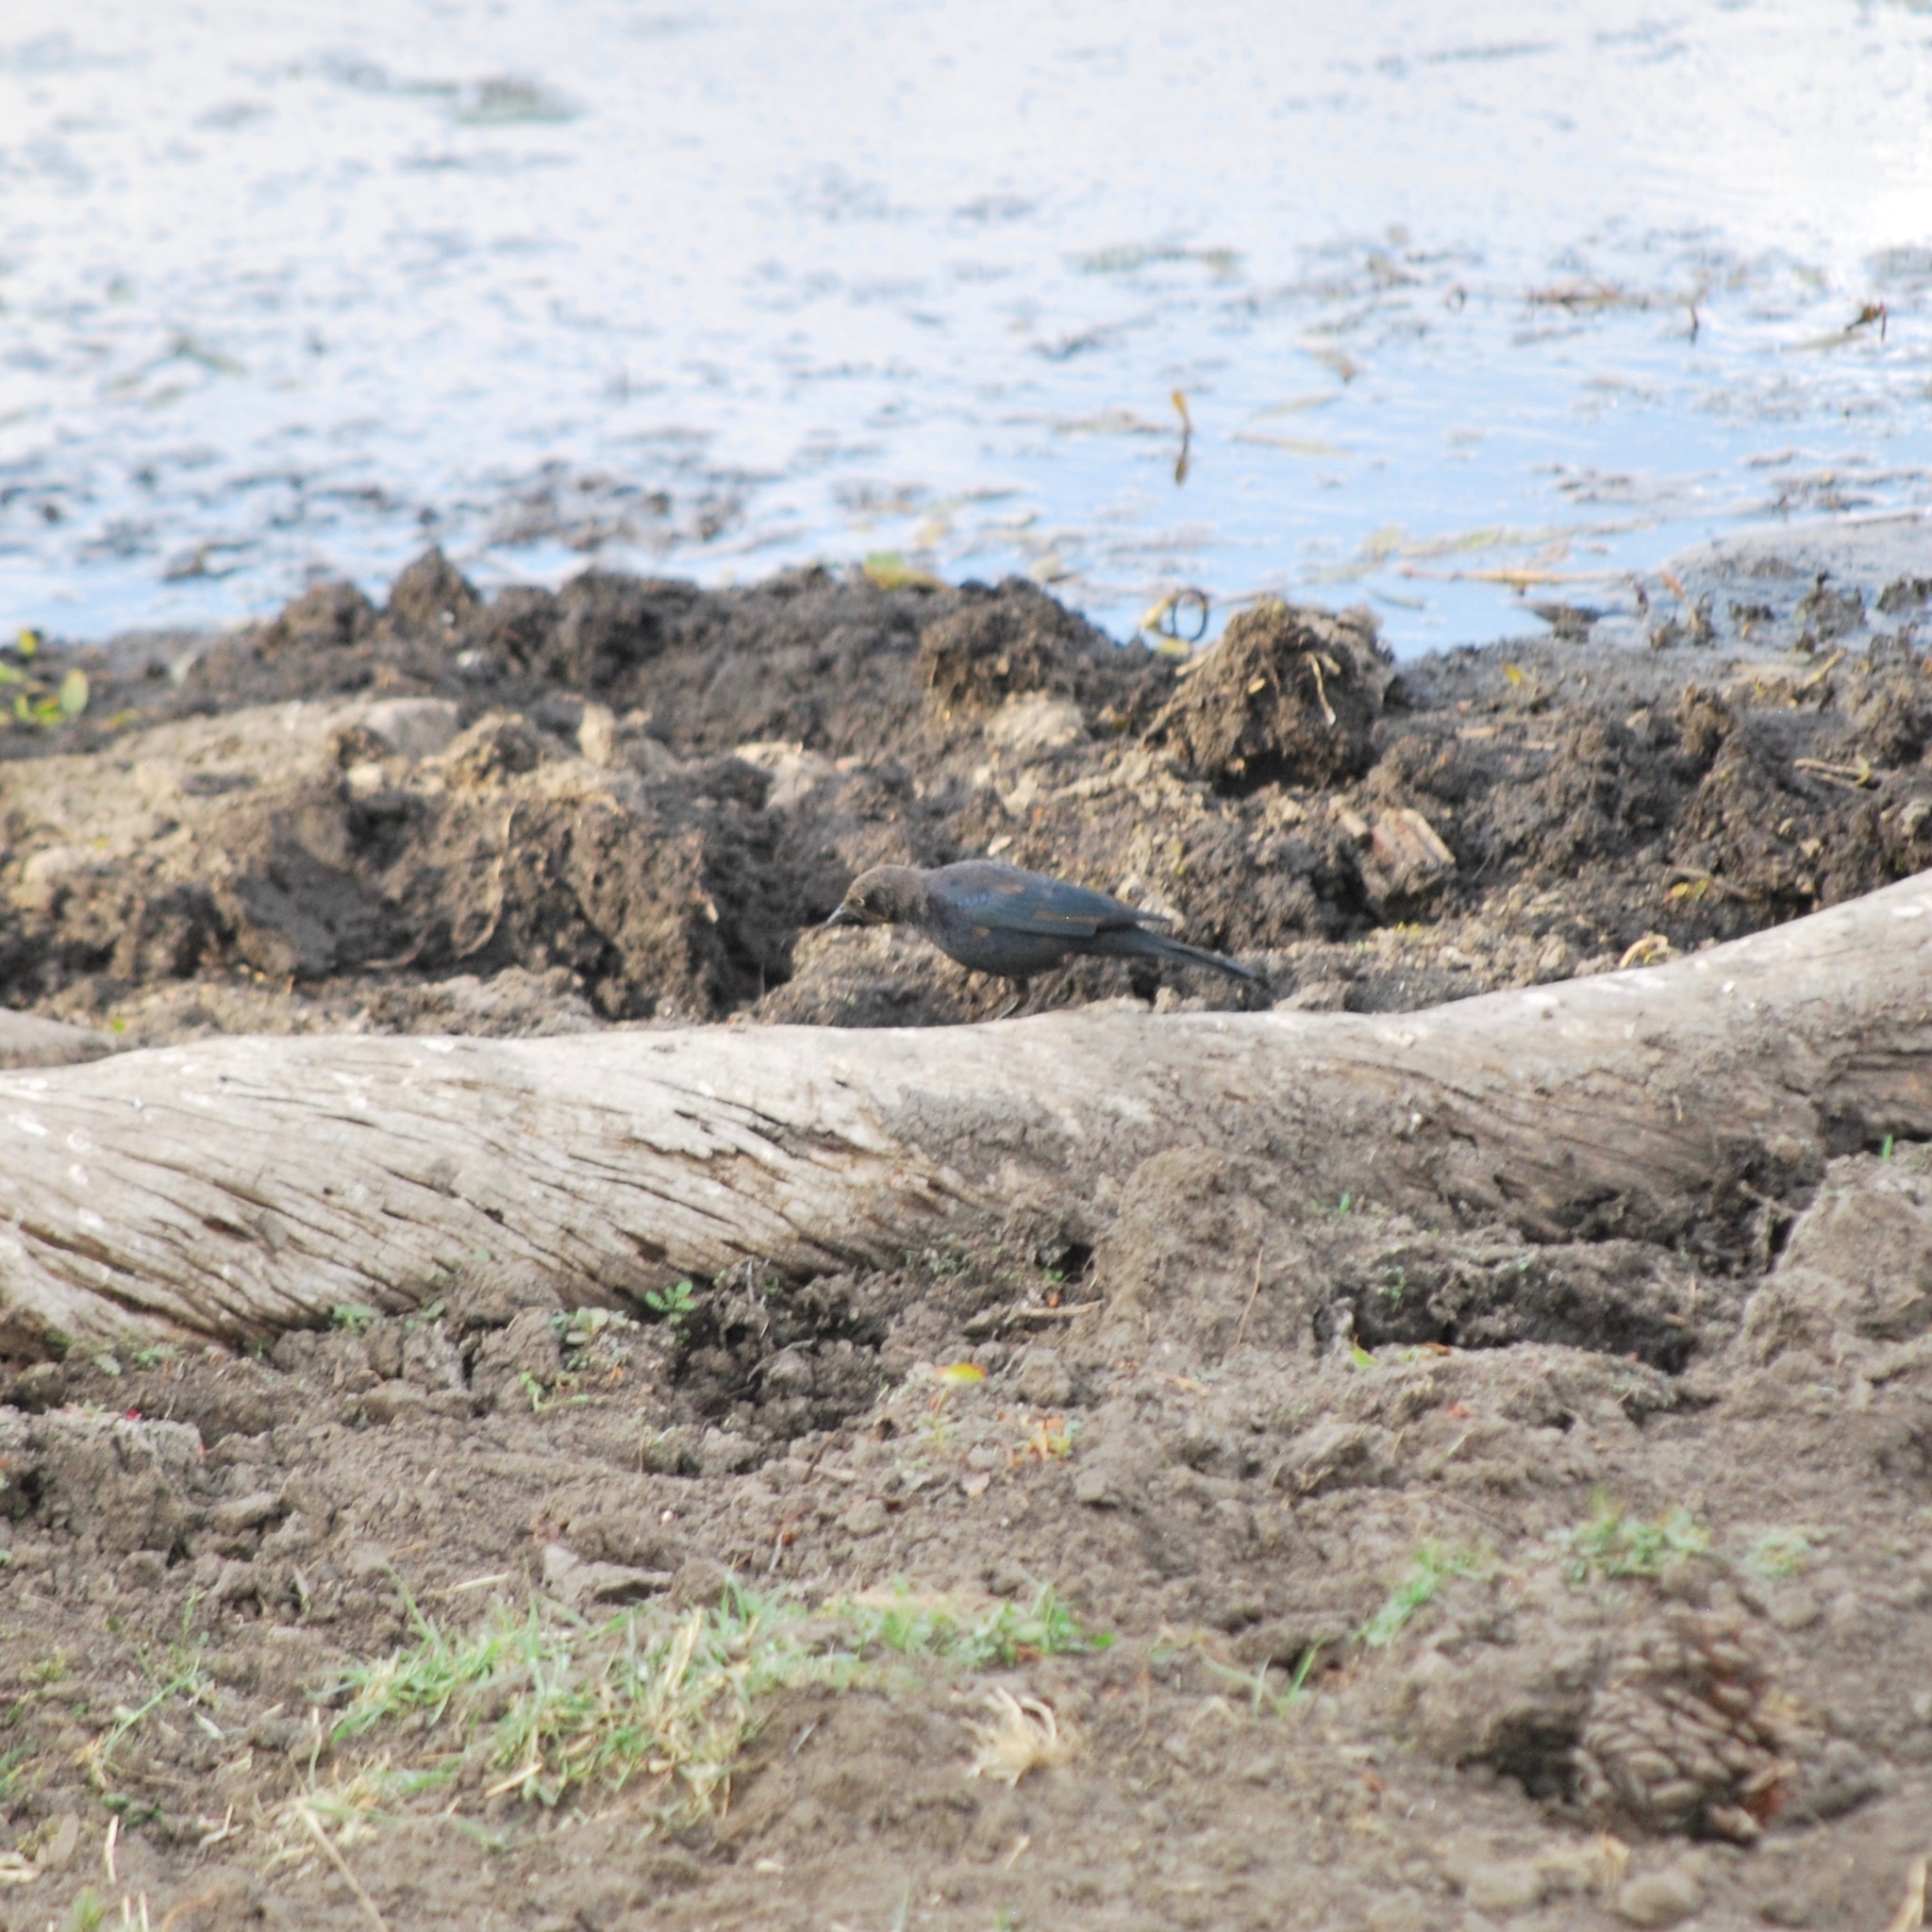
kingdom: Animalia
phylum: Chordata
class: Aves
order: Passeriformes
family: Icteridae
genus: Euphagus
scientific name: Euphagus cyanocephalus
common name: Brewer's blackbird
